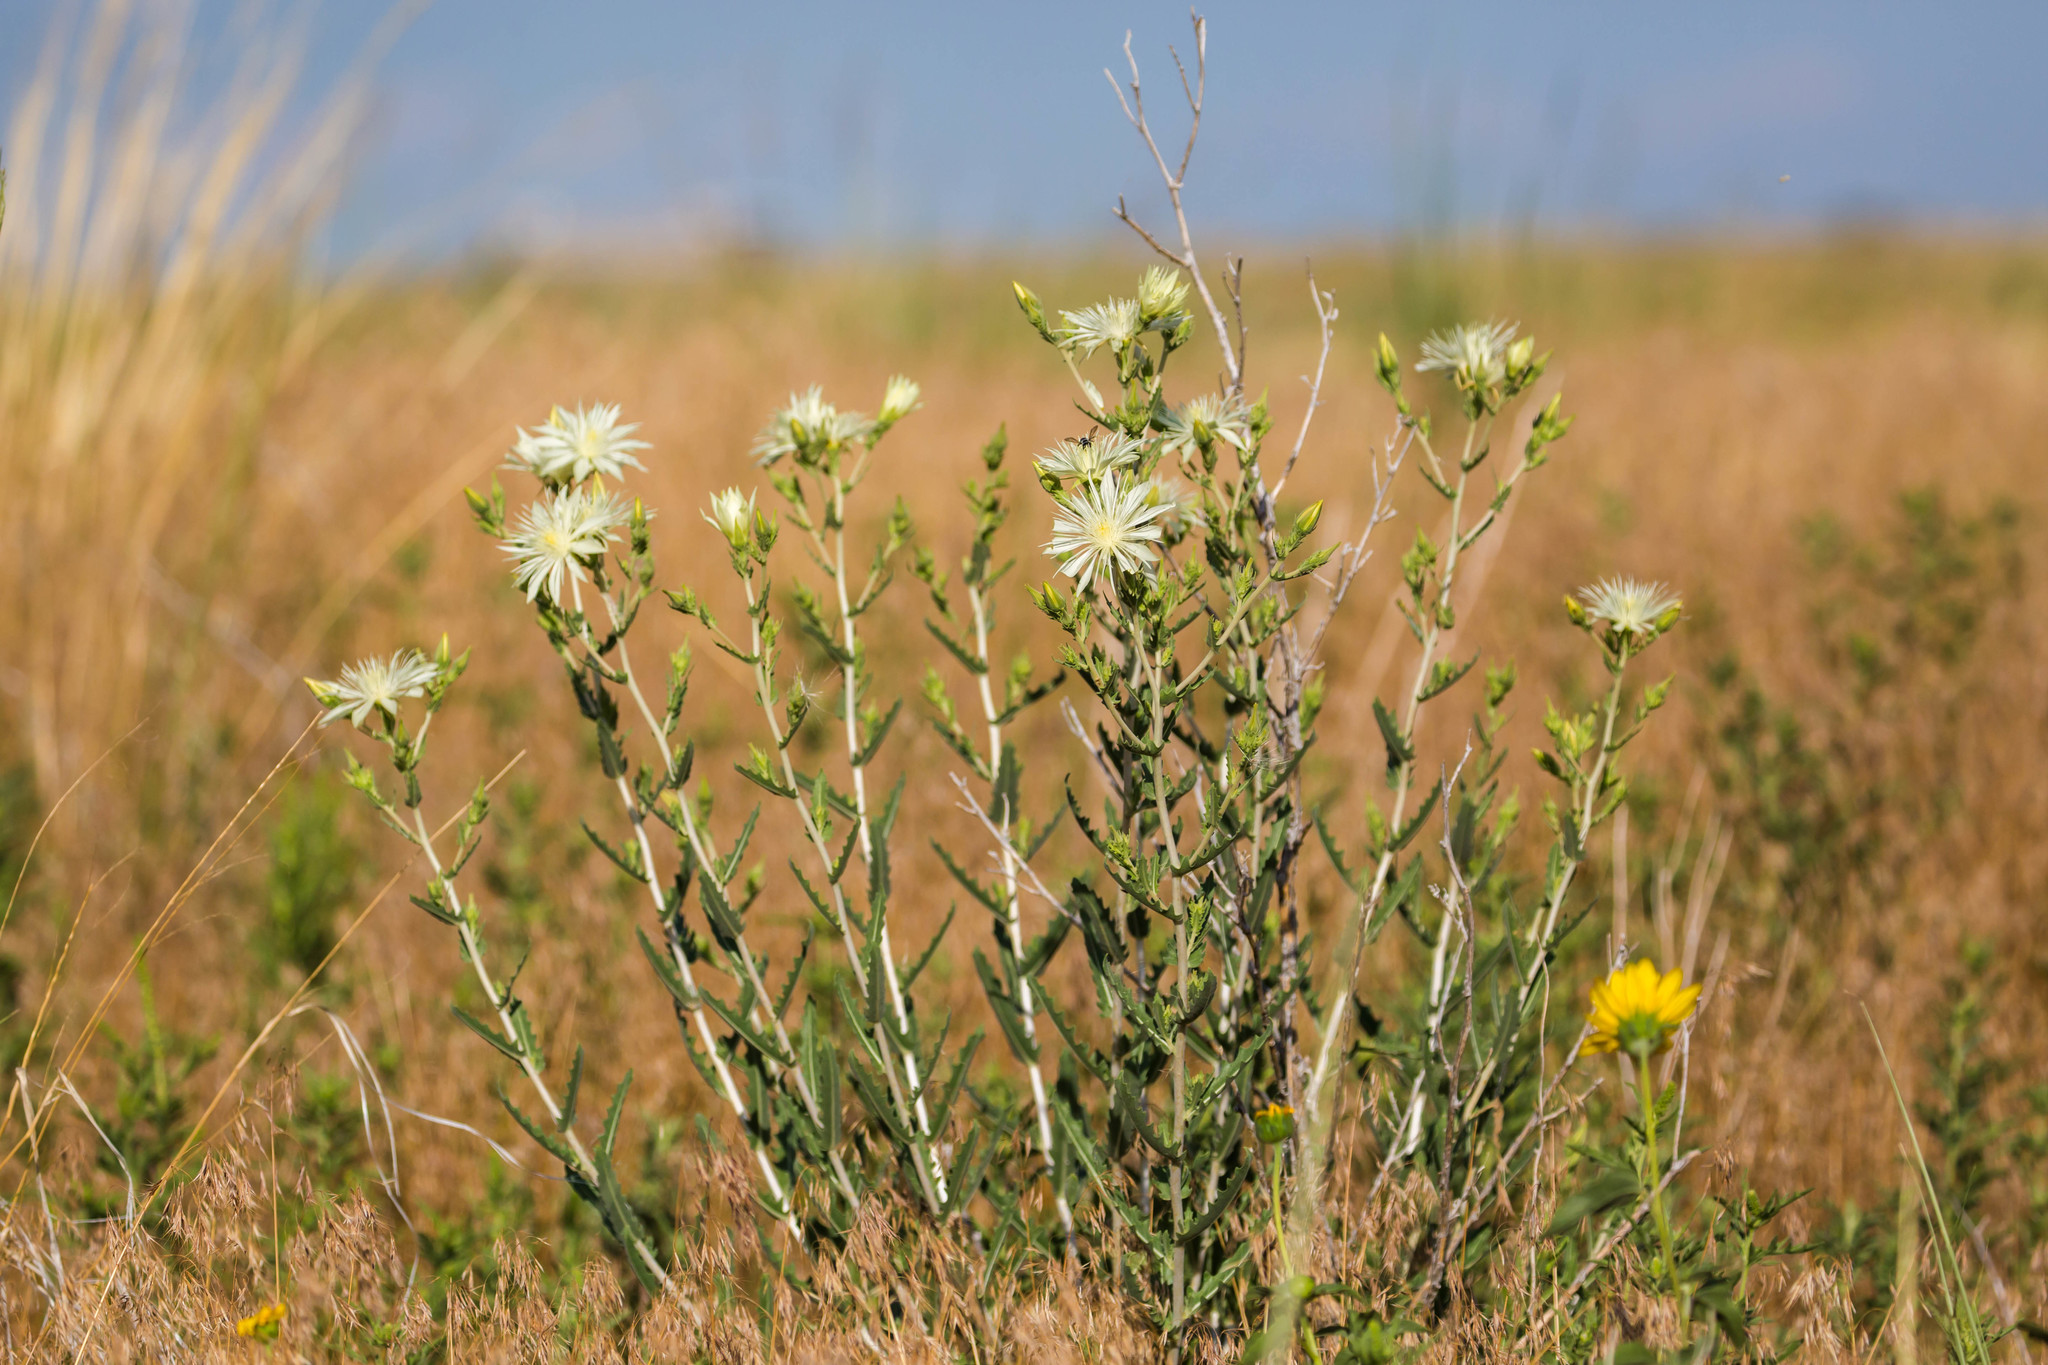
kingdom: Plantae
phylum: Tracheophyta
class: Magnoliopsida
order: Cornales
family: Loasaceae
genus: Mentzelia
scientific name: Mentzelia nuda
